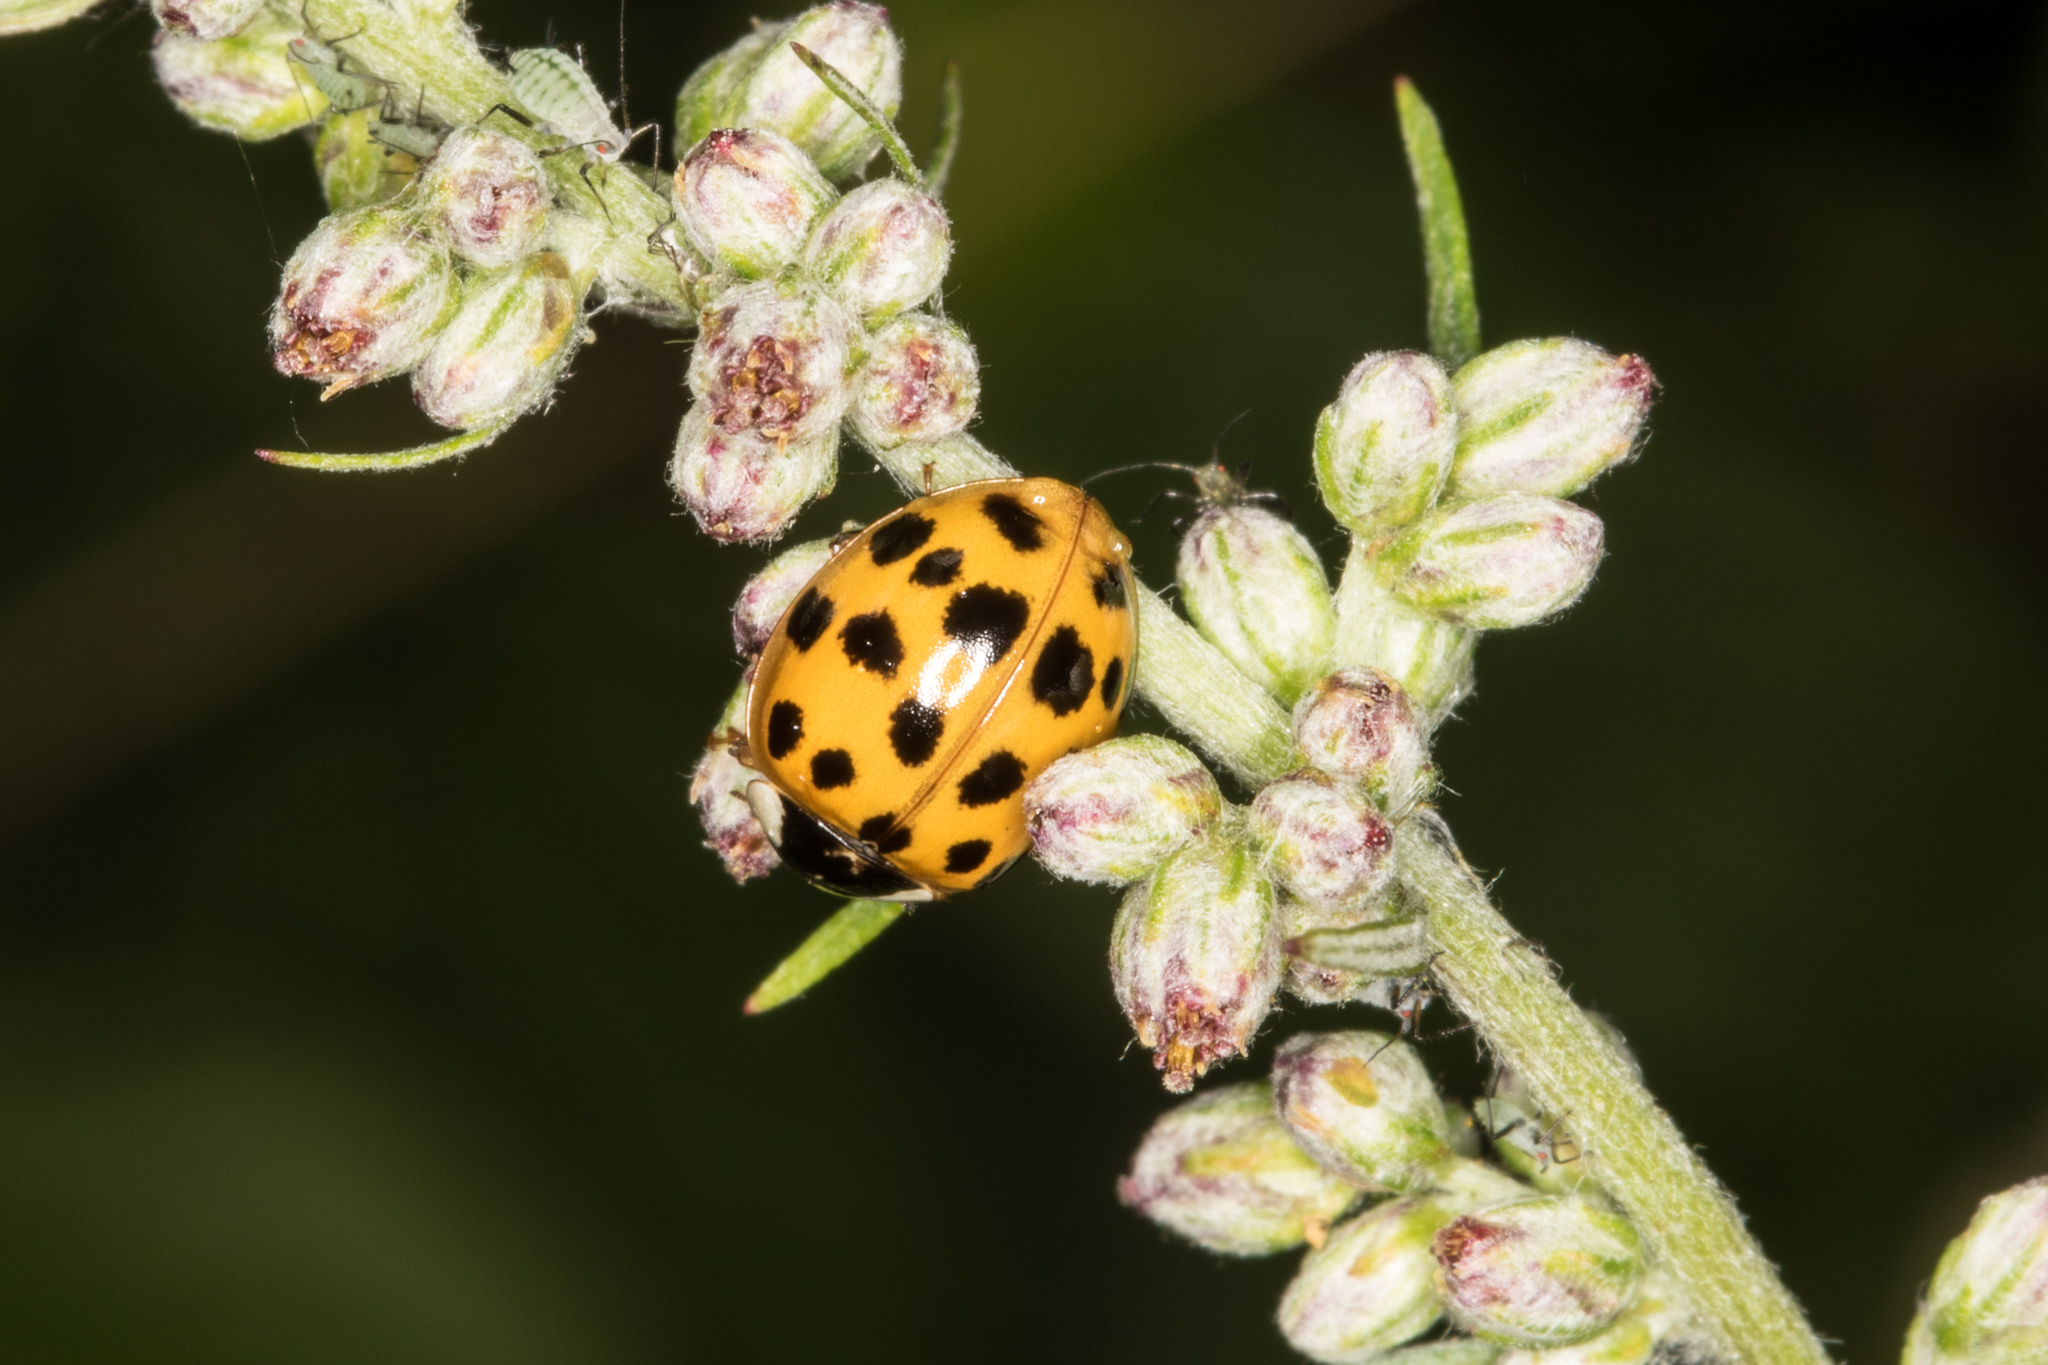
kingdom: Animalia
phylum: Arthropoda
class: Insecta
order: Coleoptera
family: Coccinellidae
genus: Harmonia
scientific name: Harmonia axyridis
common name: Harlequin ladybird
